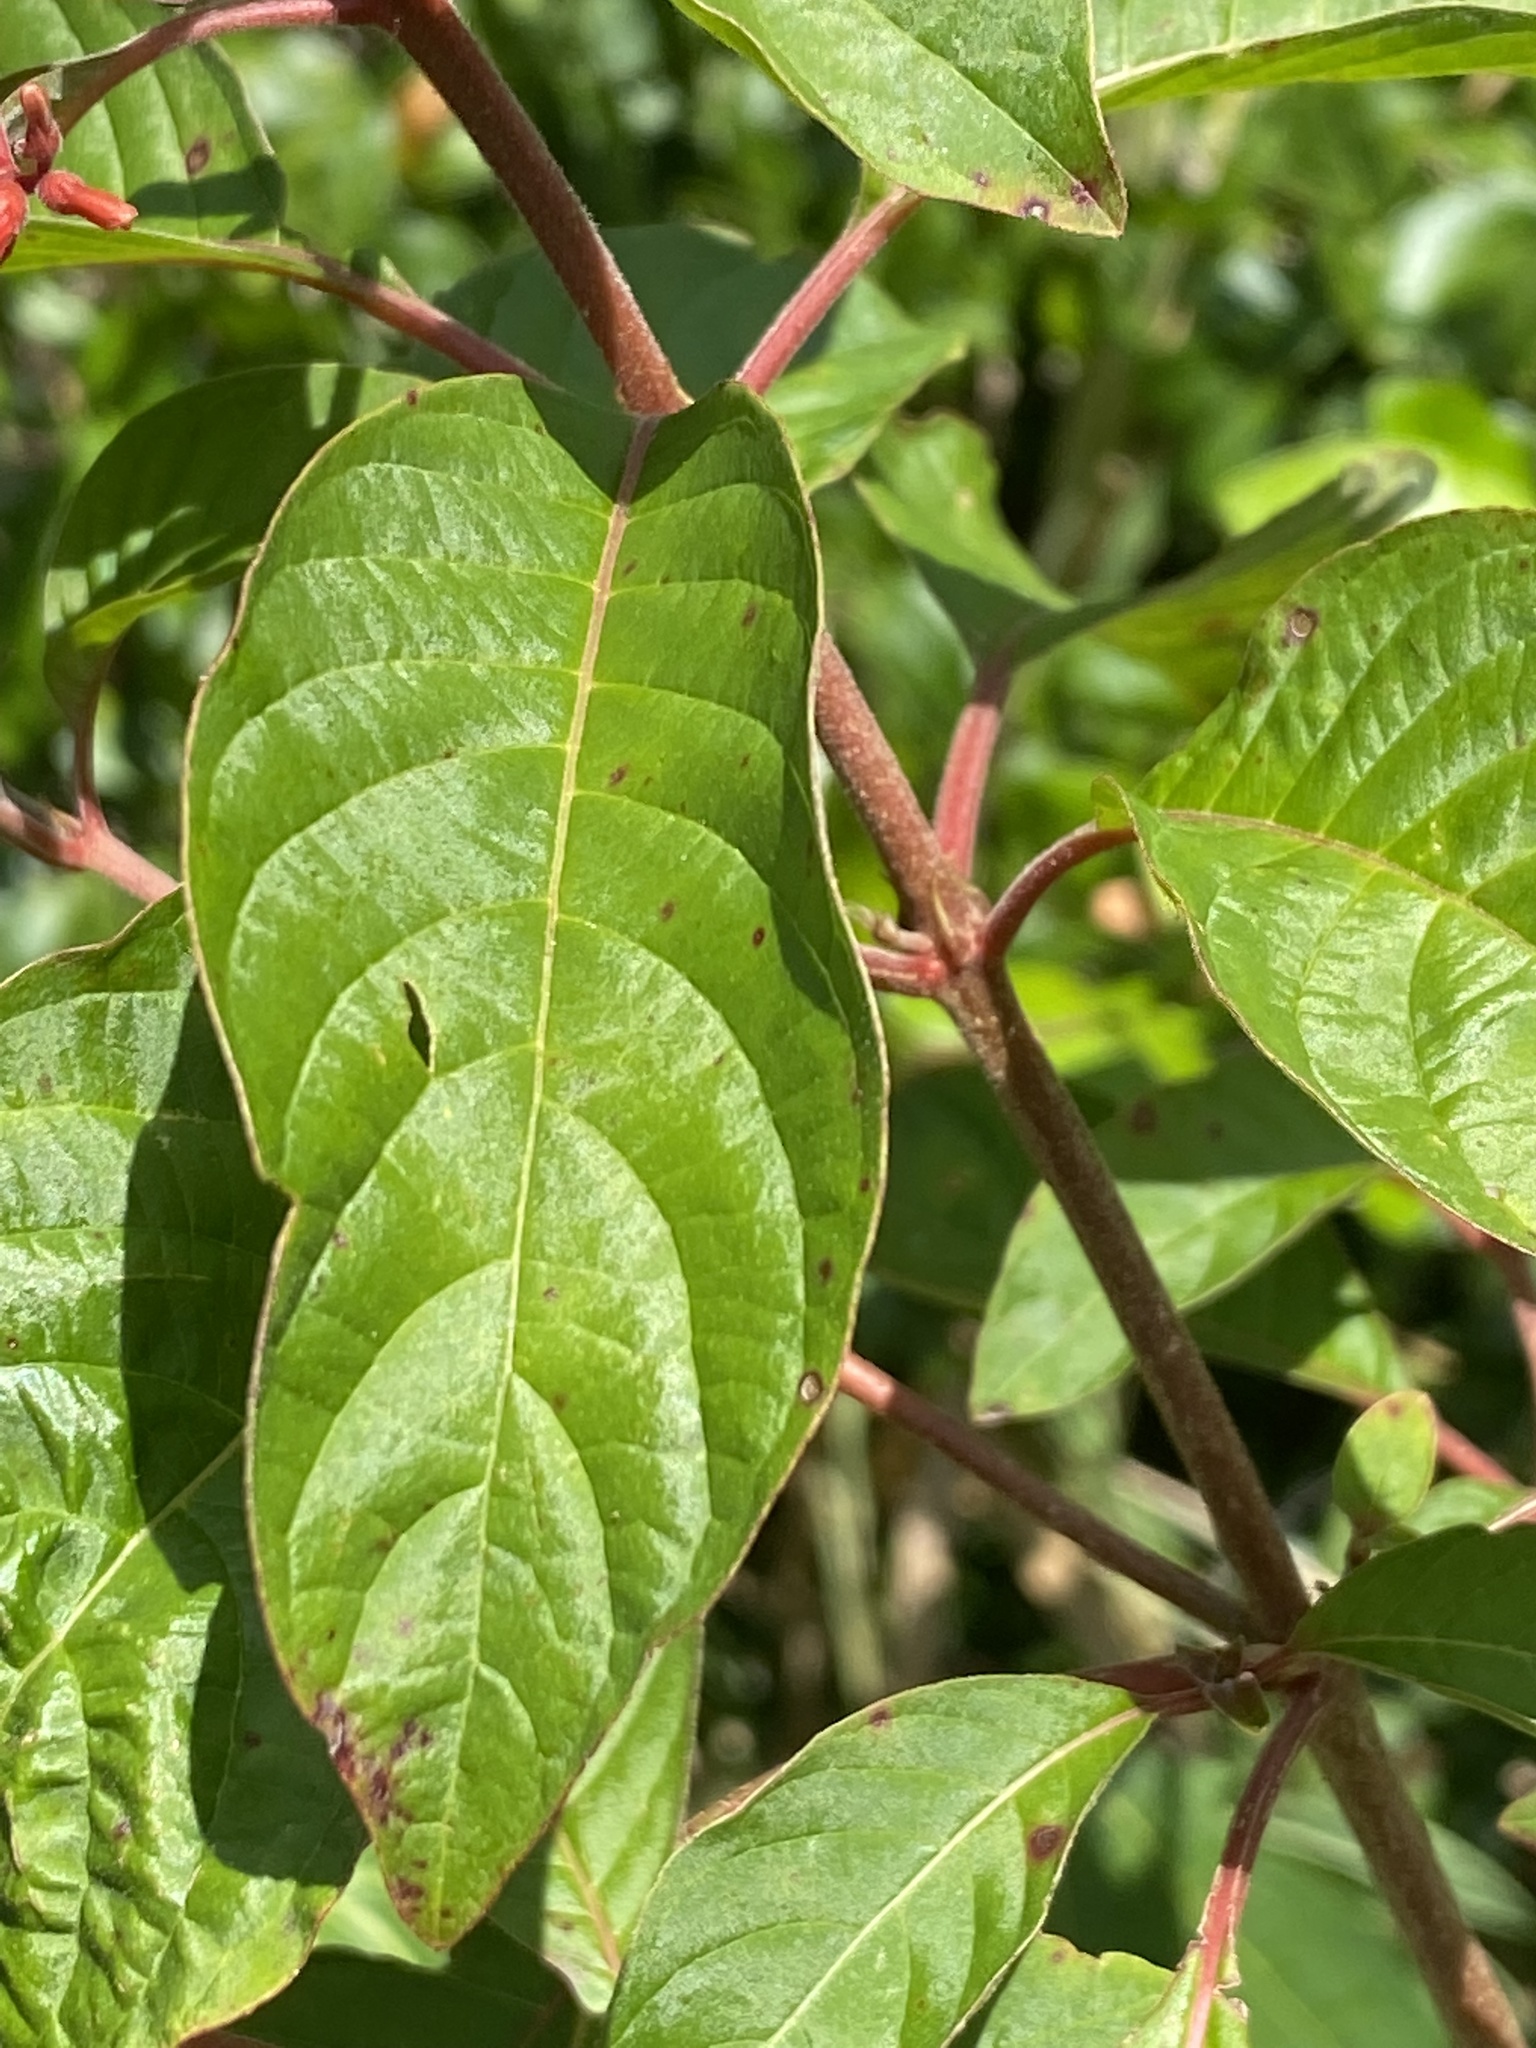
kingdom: Plantae
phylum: Tracheophyta
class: Magnoliopsida
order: Gentianales
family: Rubiaceae
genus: Hamelia
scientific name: Hamelia patens
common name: Redhead
